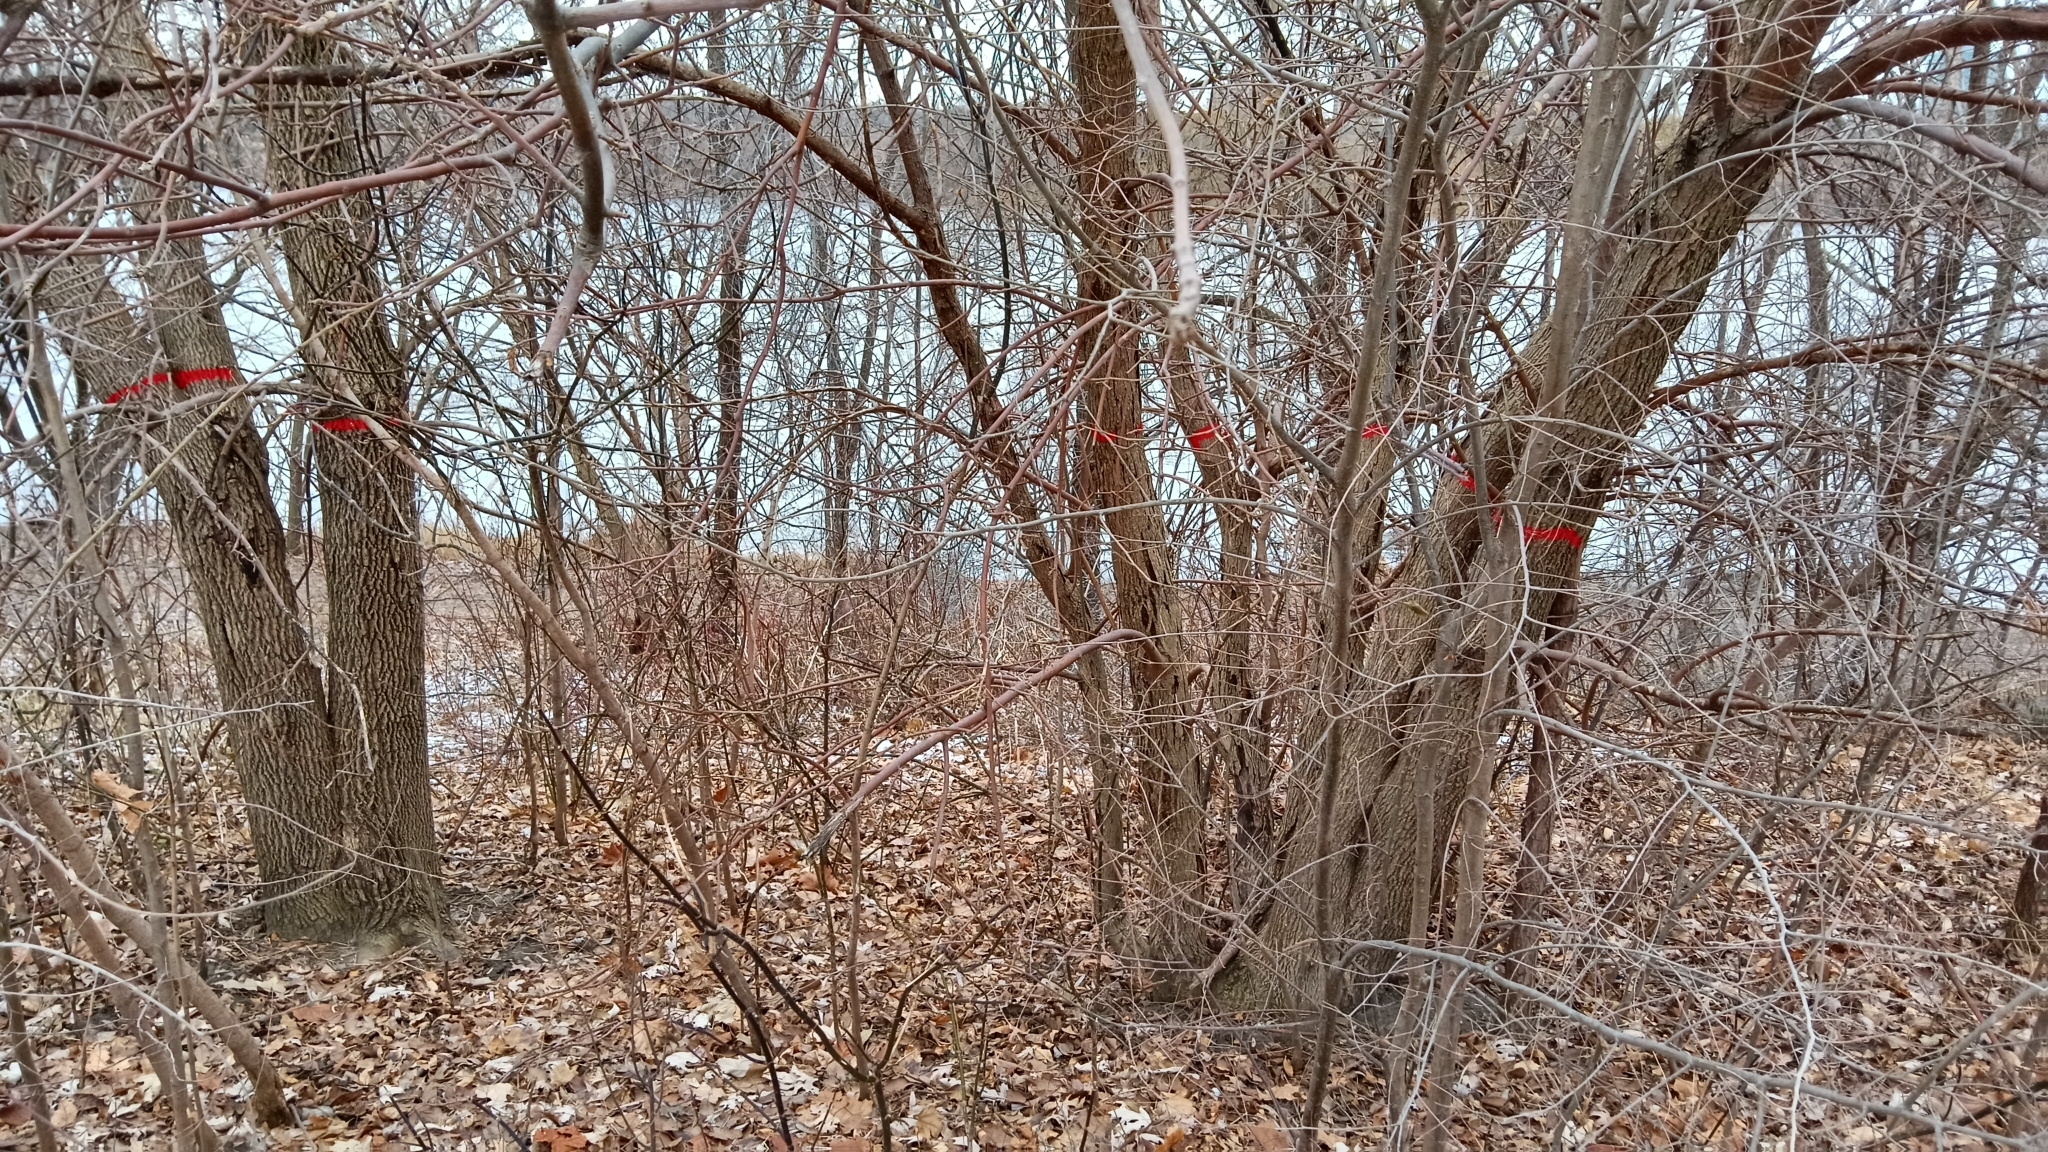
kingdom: Plantae
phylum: Tracheophyta
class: Magnoliopsida
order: Lamiales
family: Oleaceae
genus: Fraxinus
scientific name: Fraxinus pennsylvanica
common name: Green ash
